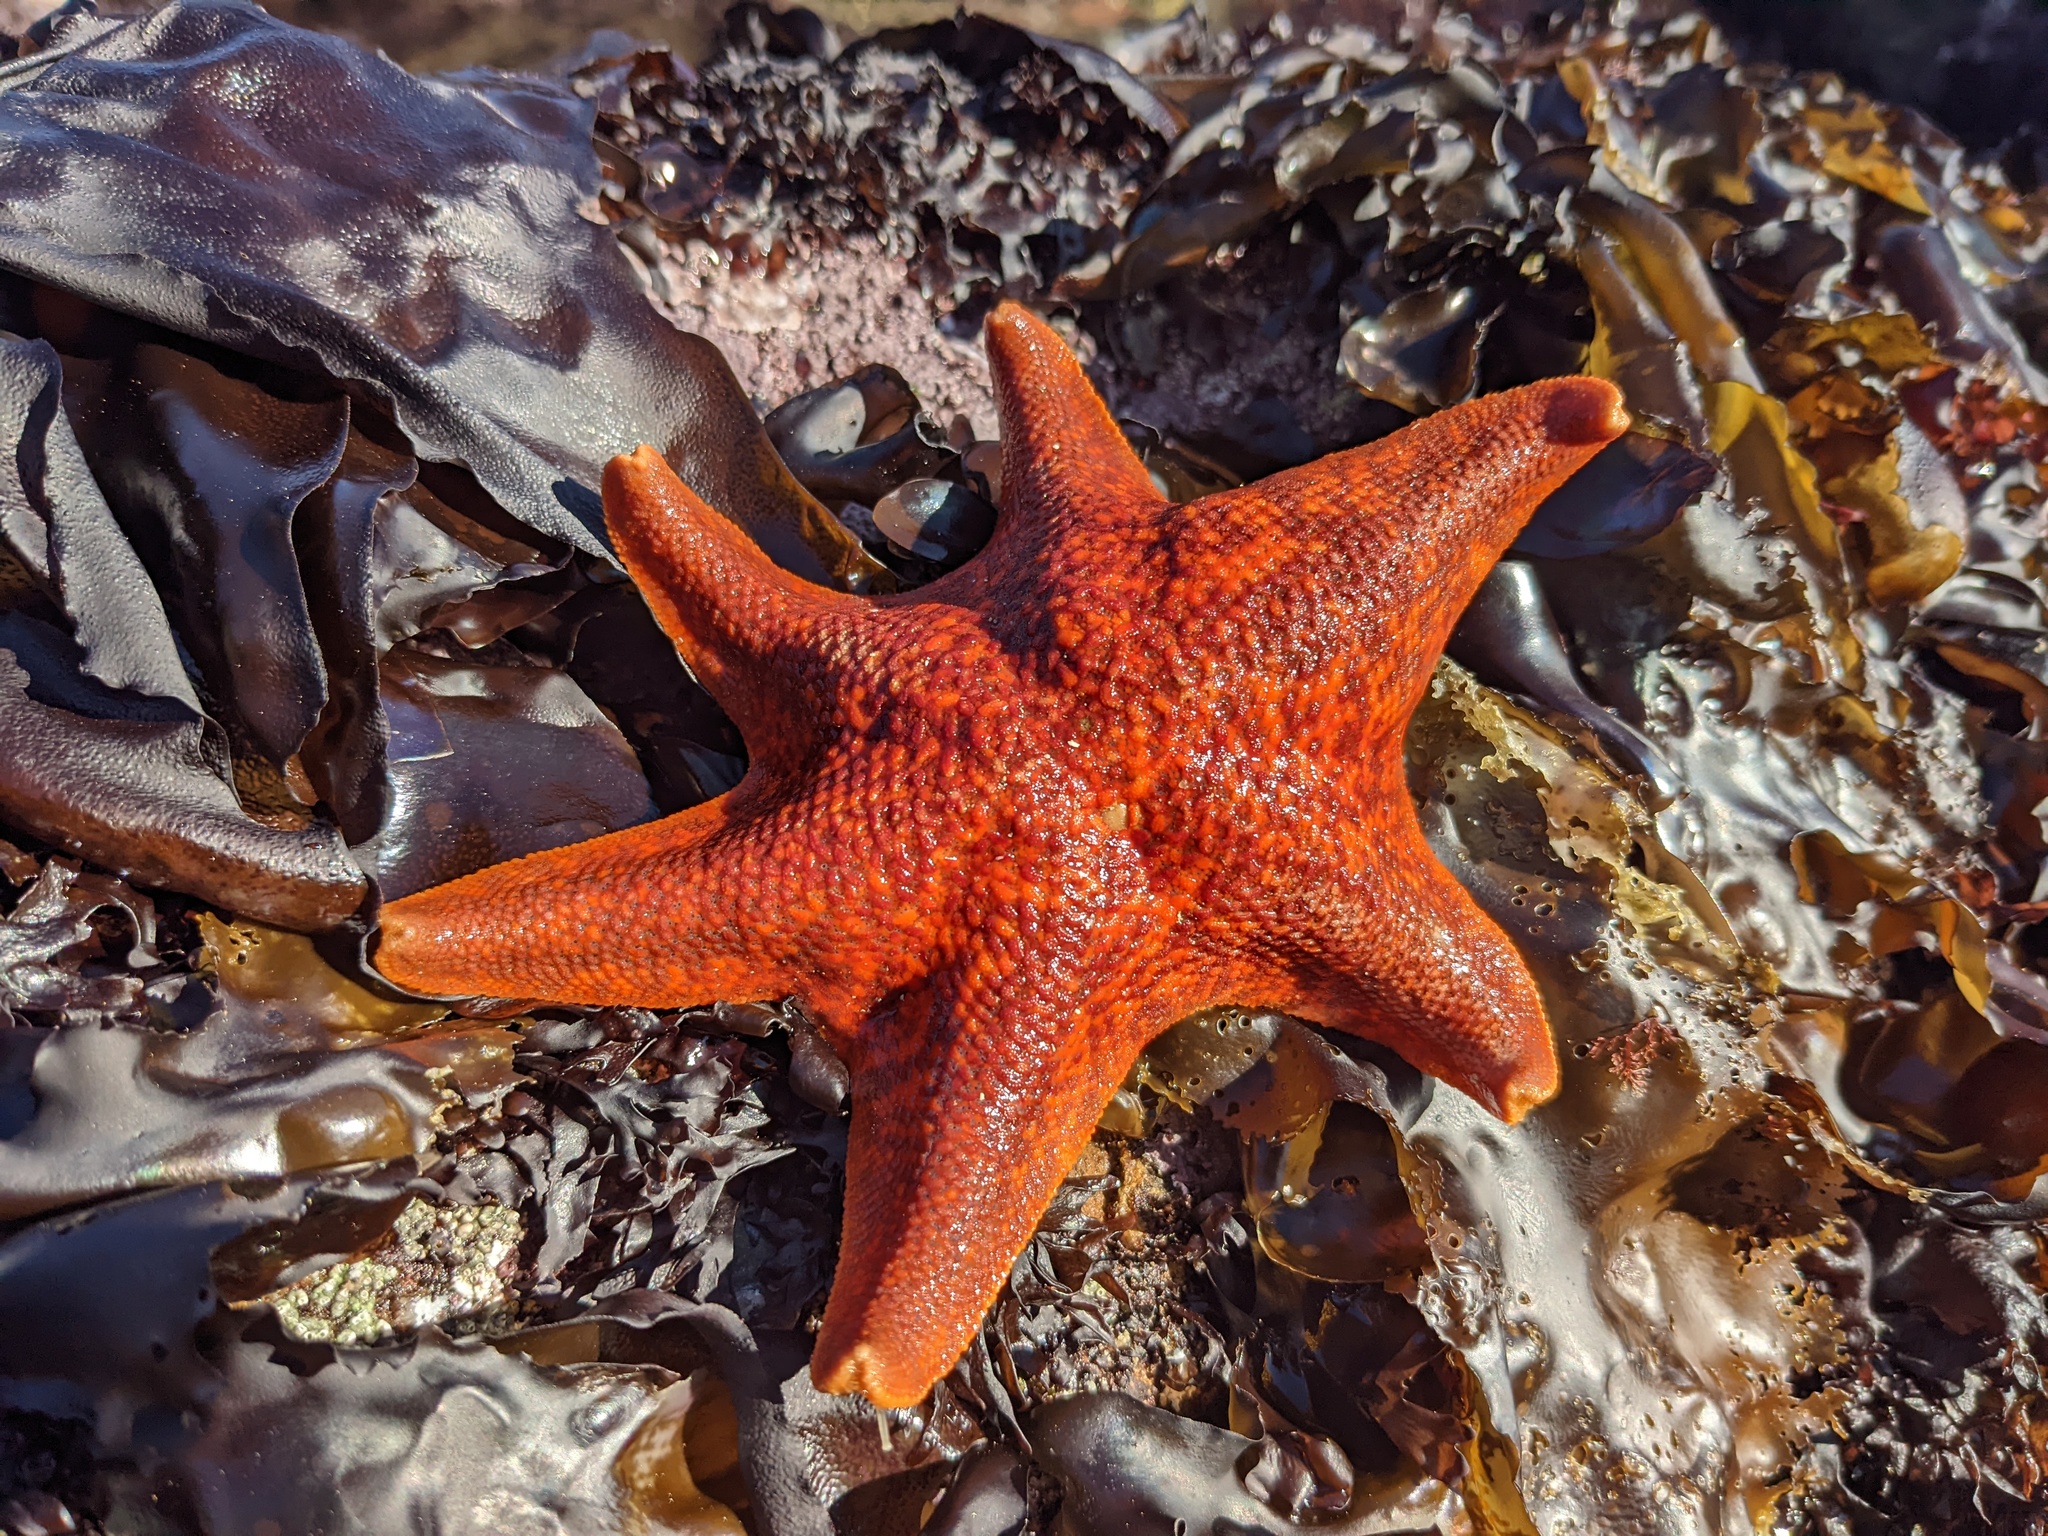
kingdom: Animalia
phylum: Echinodermata
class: Asteroidea
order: Valvatida
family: Asterinidae
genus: Patiria
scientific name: Patiria miniata
